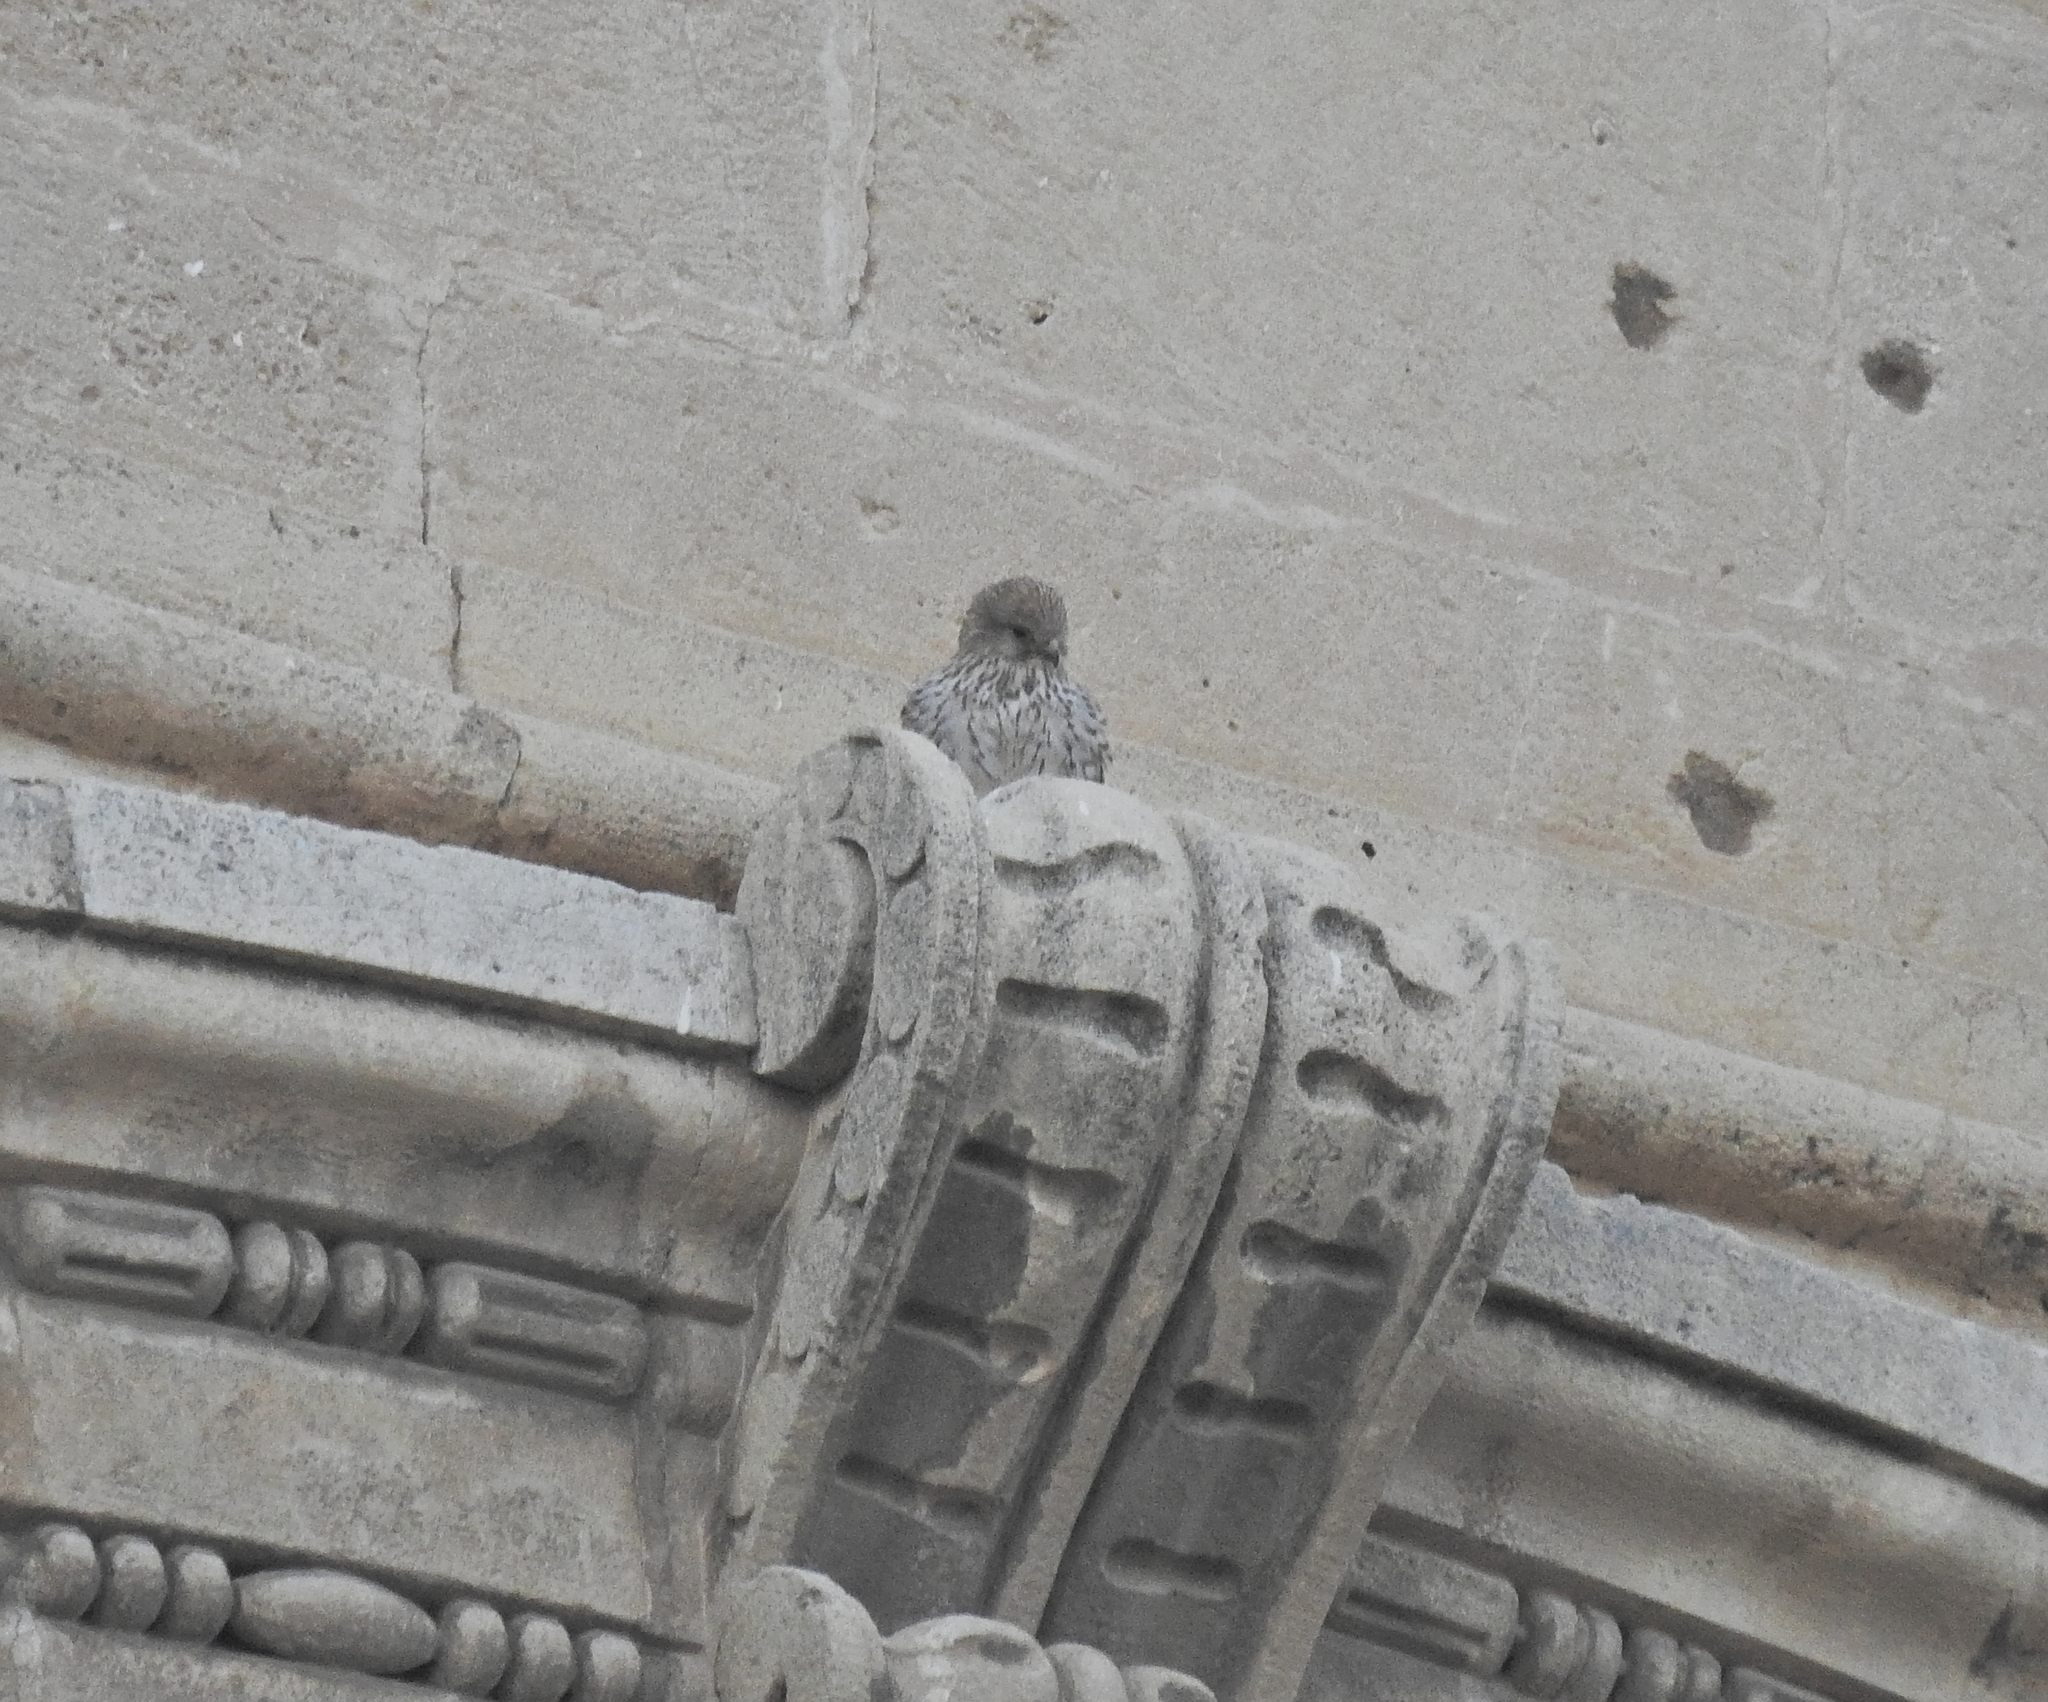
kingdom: Animalia
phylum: Chordata
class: Aves
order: Falconiformes
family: Falconidae
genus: Falco
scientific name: Falco tinnunculus
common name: Common kestrel
